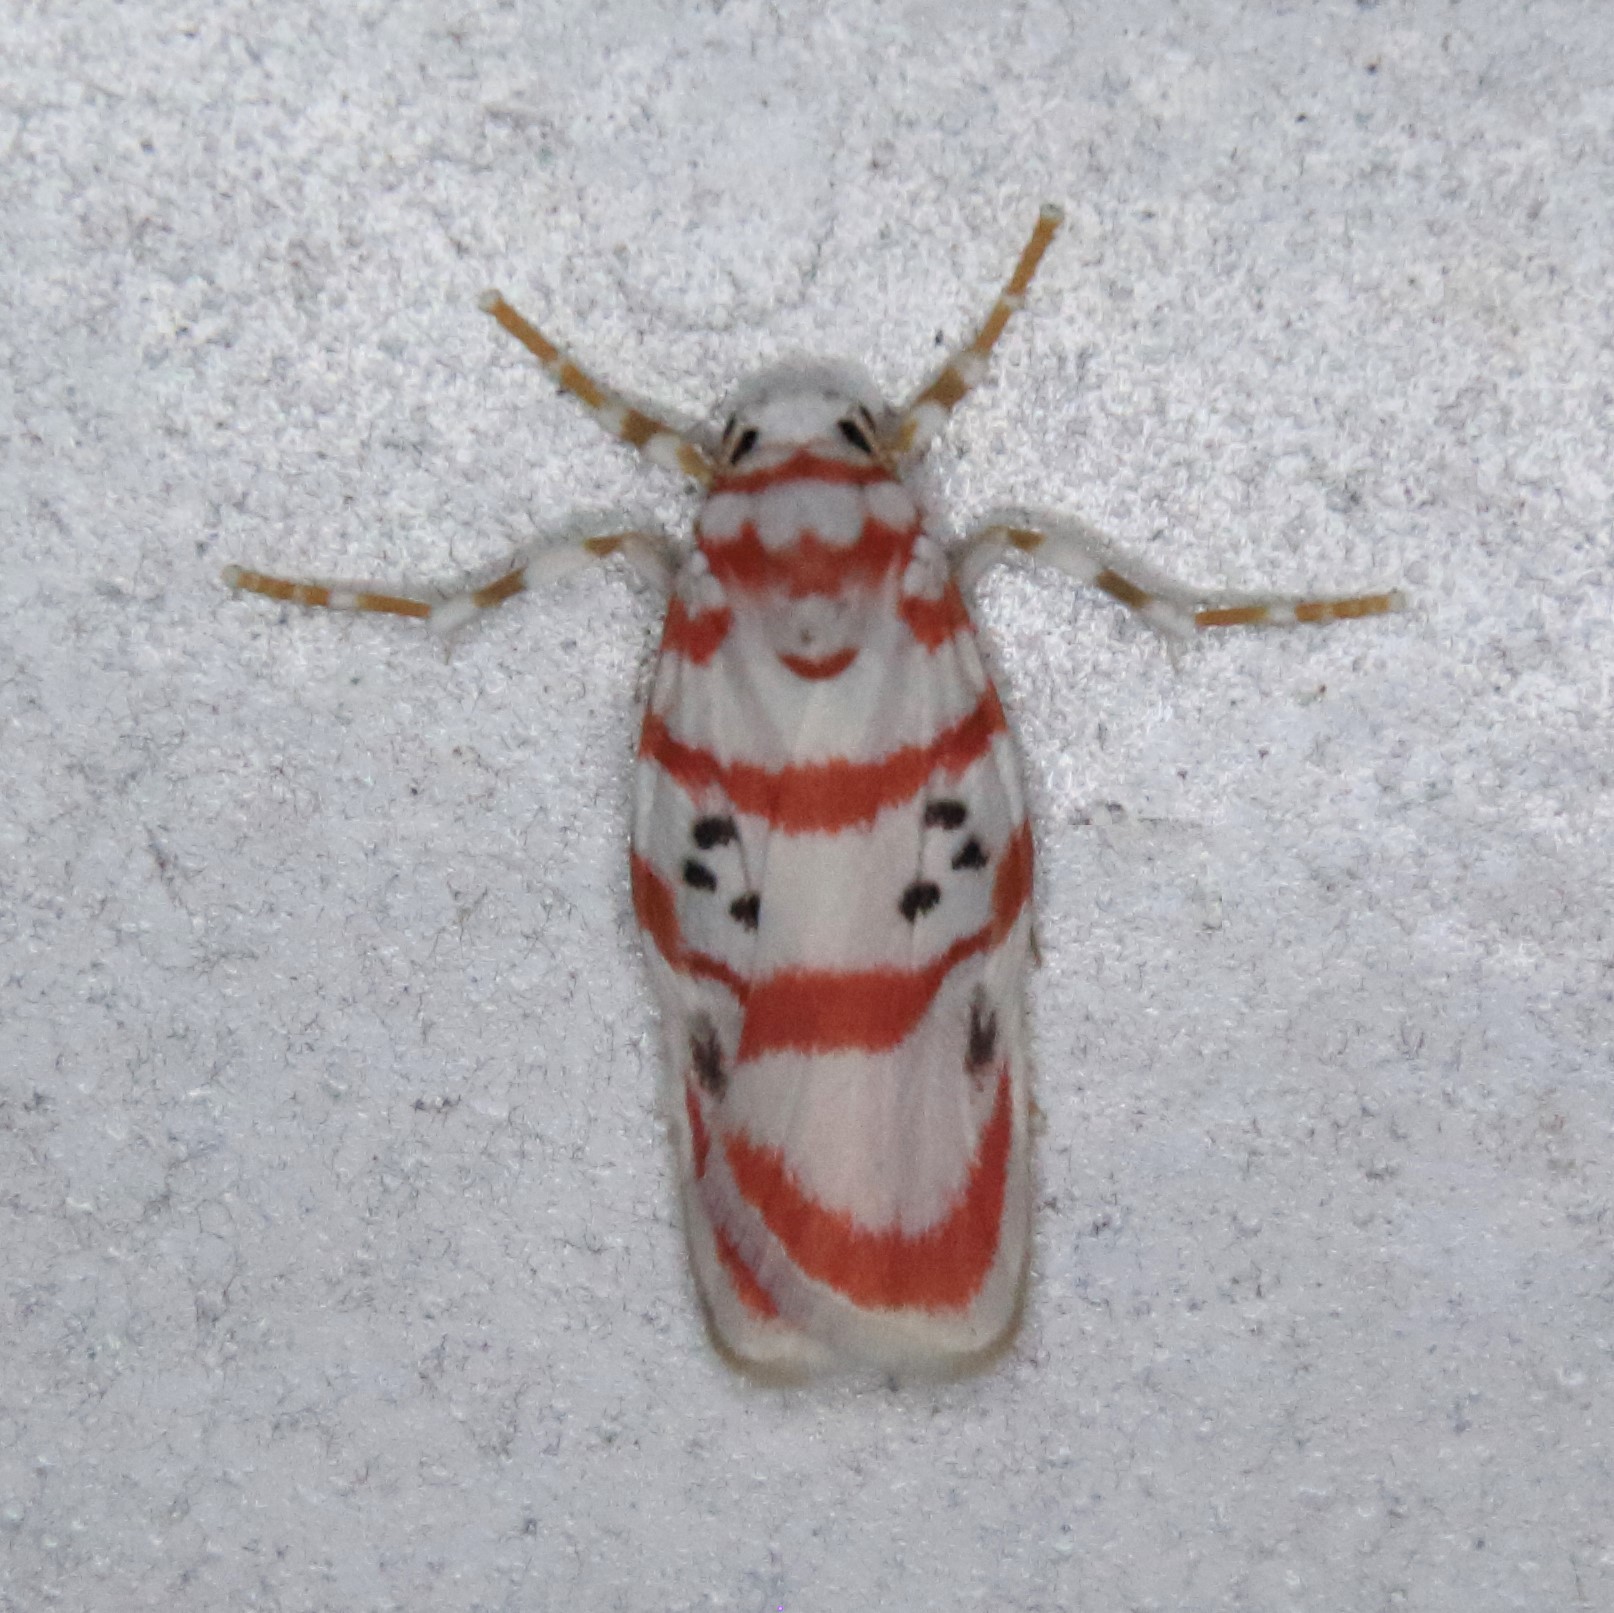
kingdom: Animalia
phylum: Arthropoda
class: Insecta
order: Lepidoptera
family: Erebidae
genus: Cyana
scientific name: Cyana obliquilineata
